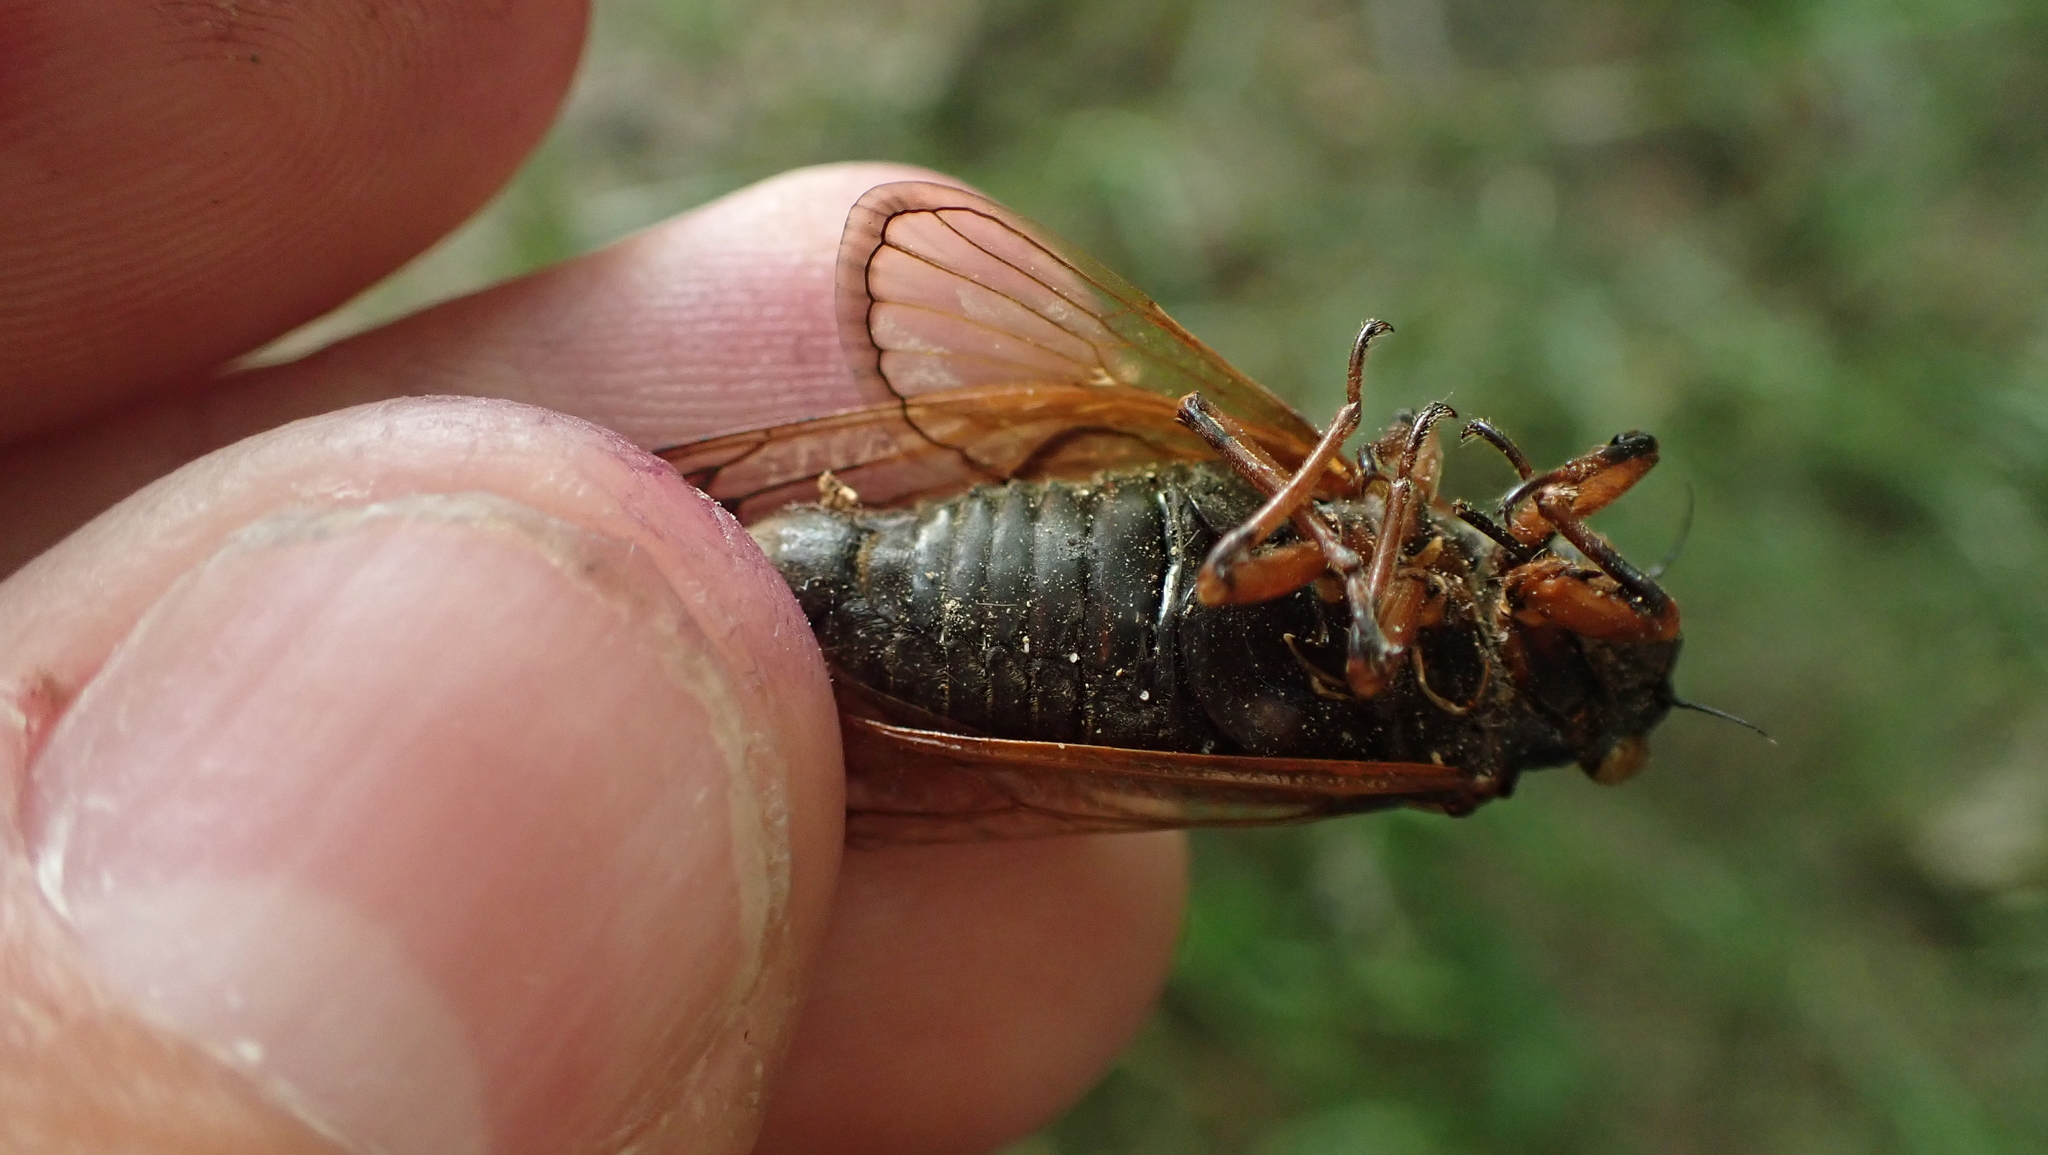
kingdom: Animalia
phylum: Arthropoda
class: Insecta
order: Hemiptera
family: Cicadidae
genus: Magicicada
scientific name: Magicicada cassini
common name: Cassin's 17-year cicada
